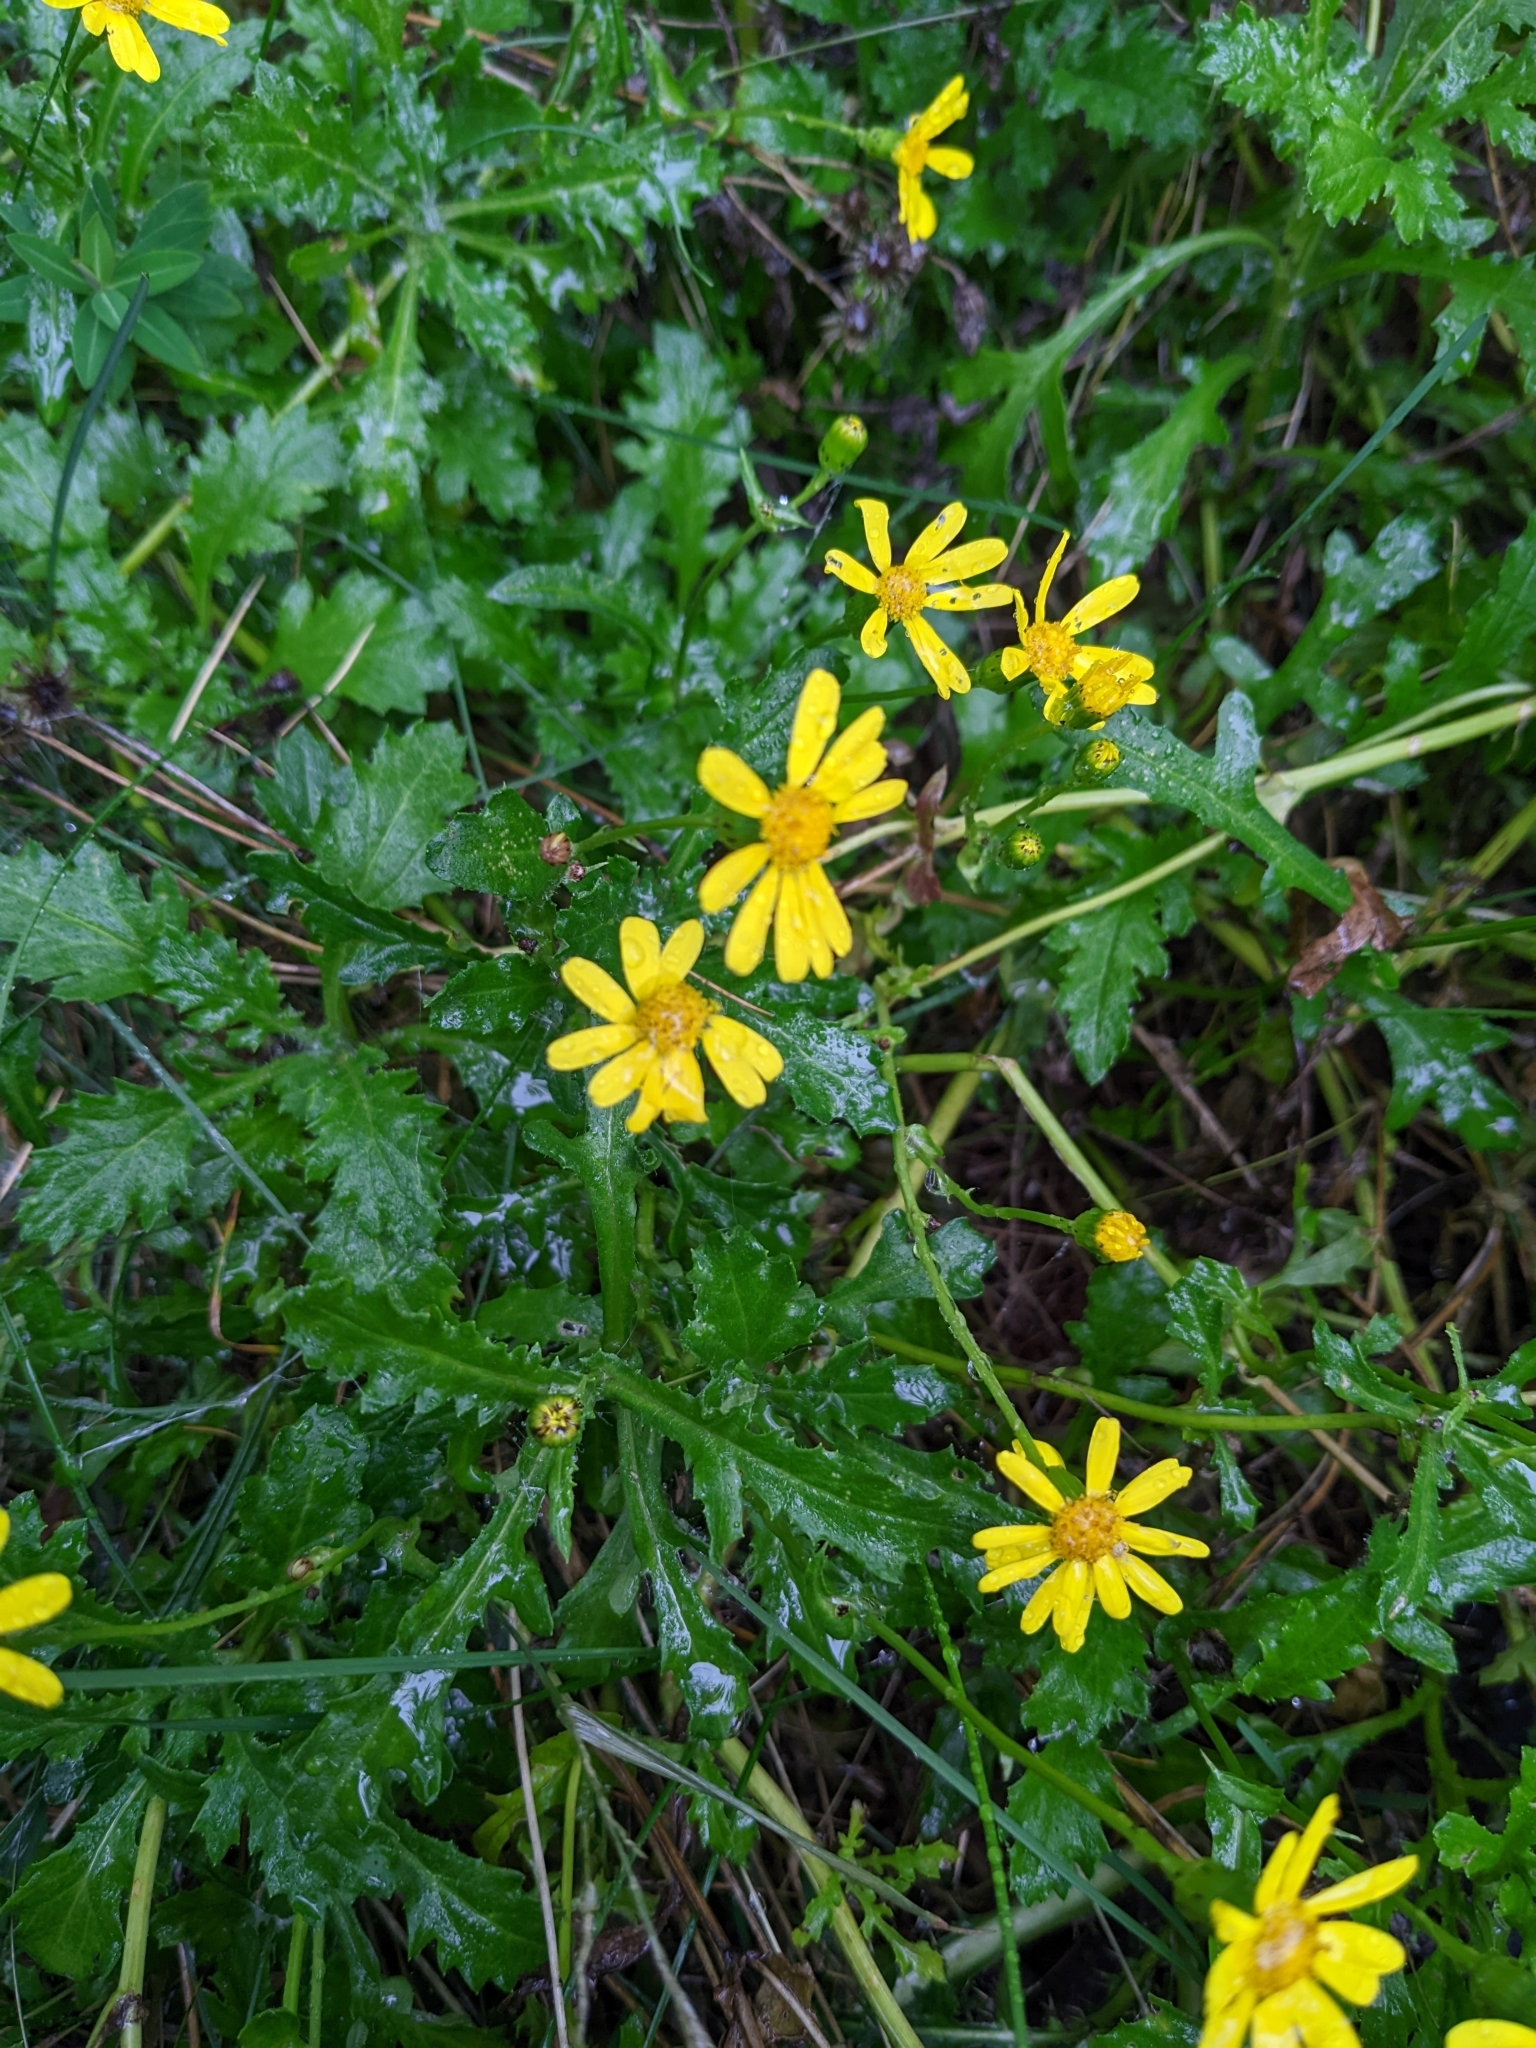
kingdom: Plantae
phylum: Tracheophyta
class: Magnoliopsida
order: Asterales
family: Asteraceae
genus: Senecio
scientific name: Senecio rupestris
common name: Rock ragwort
